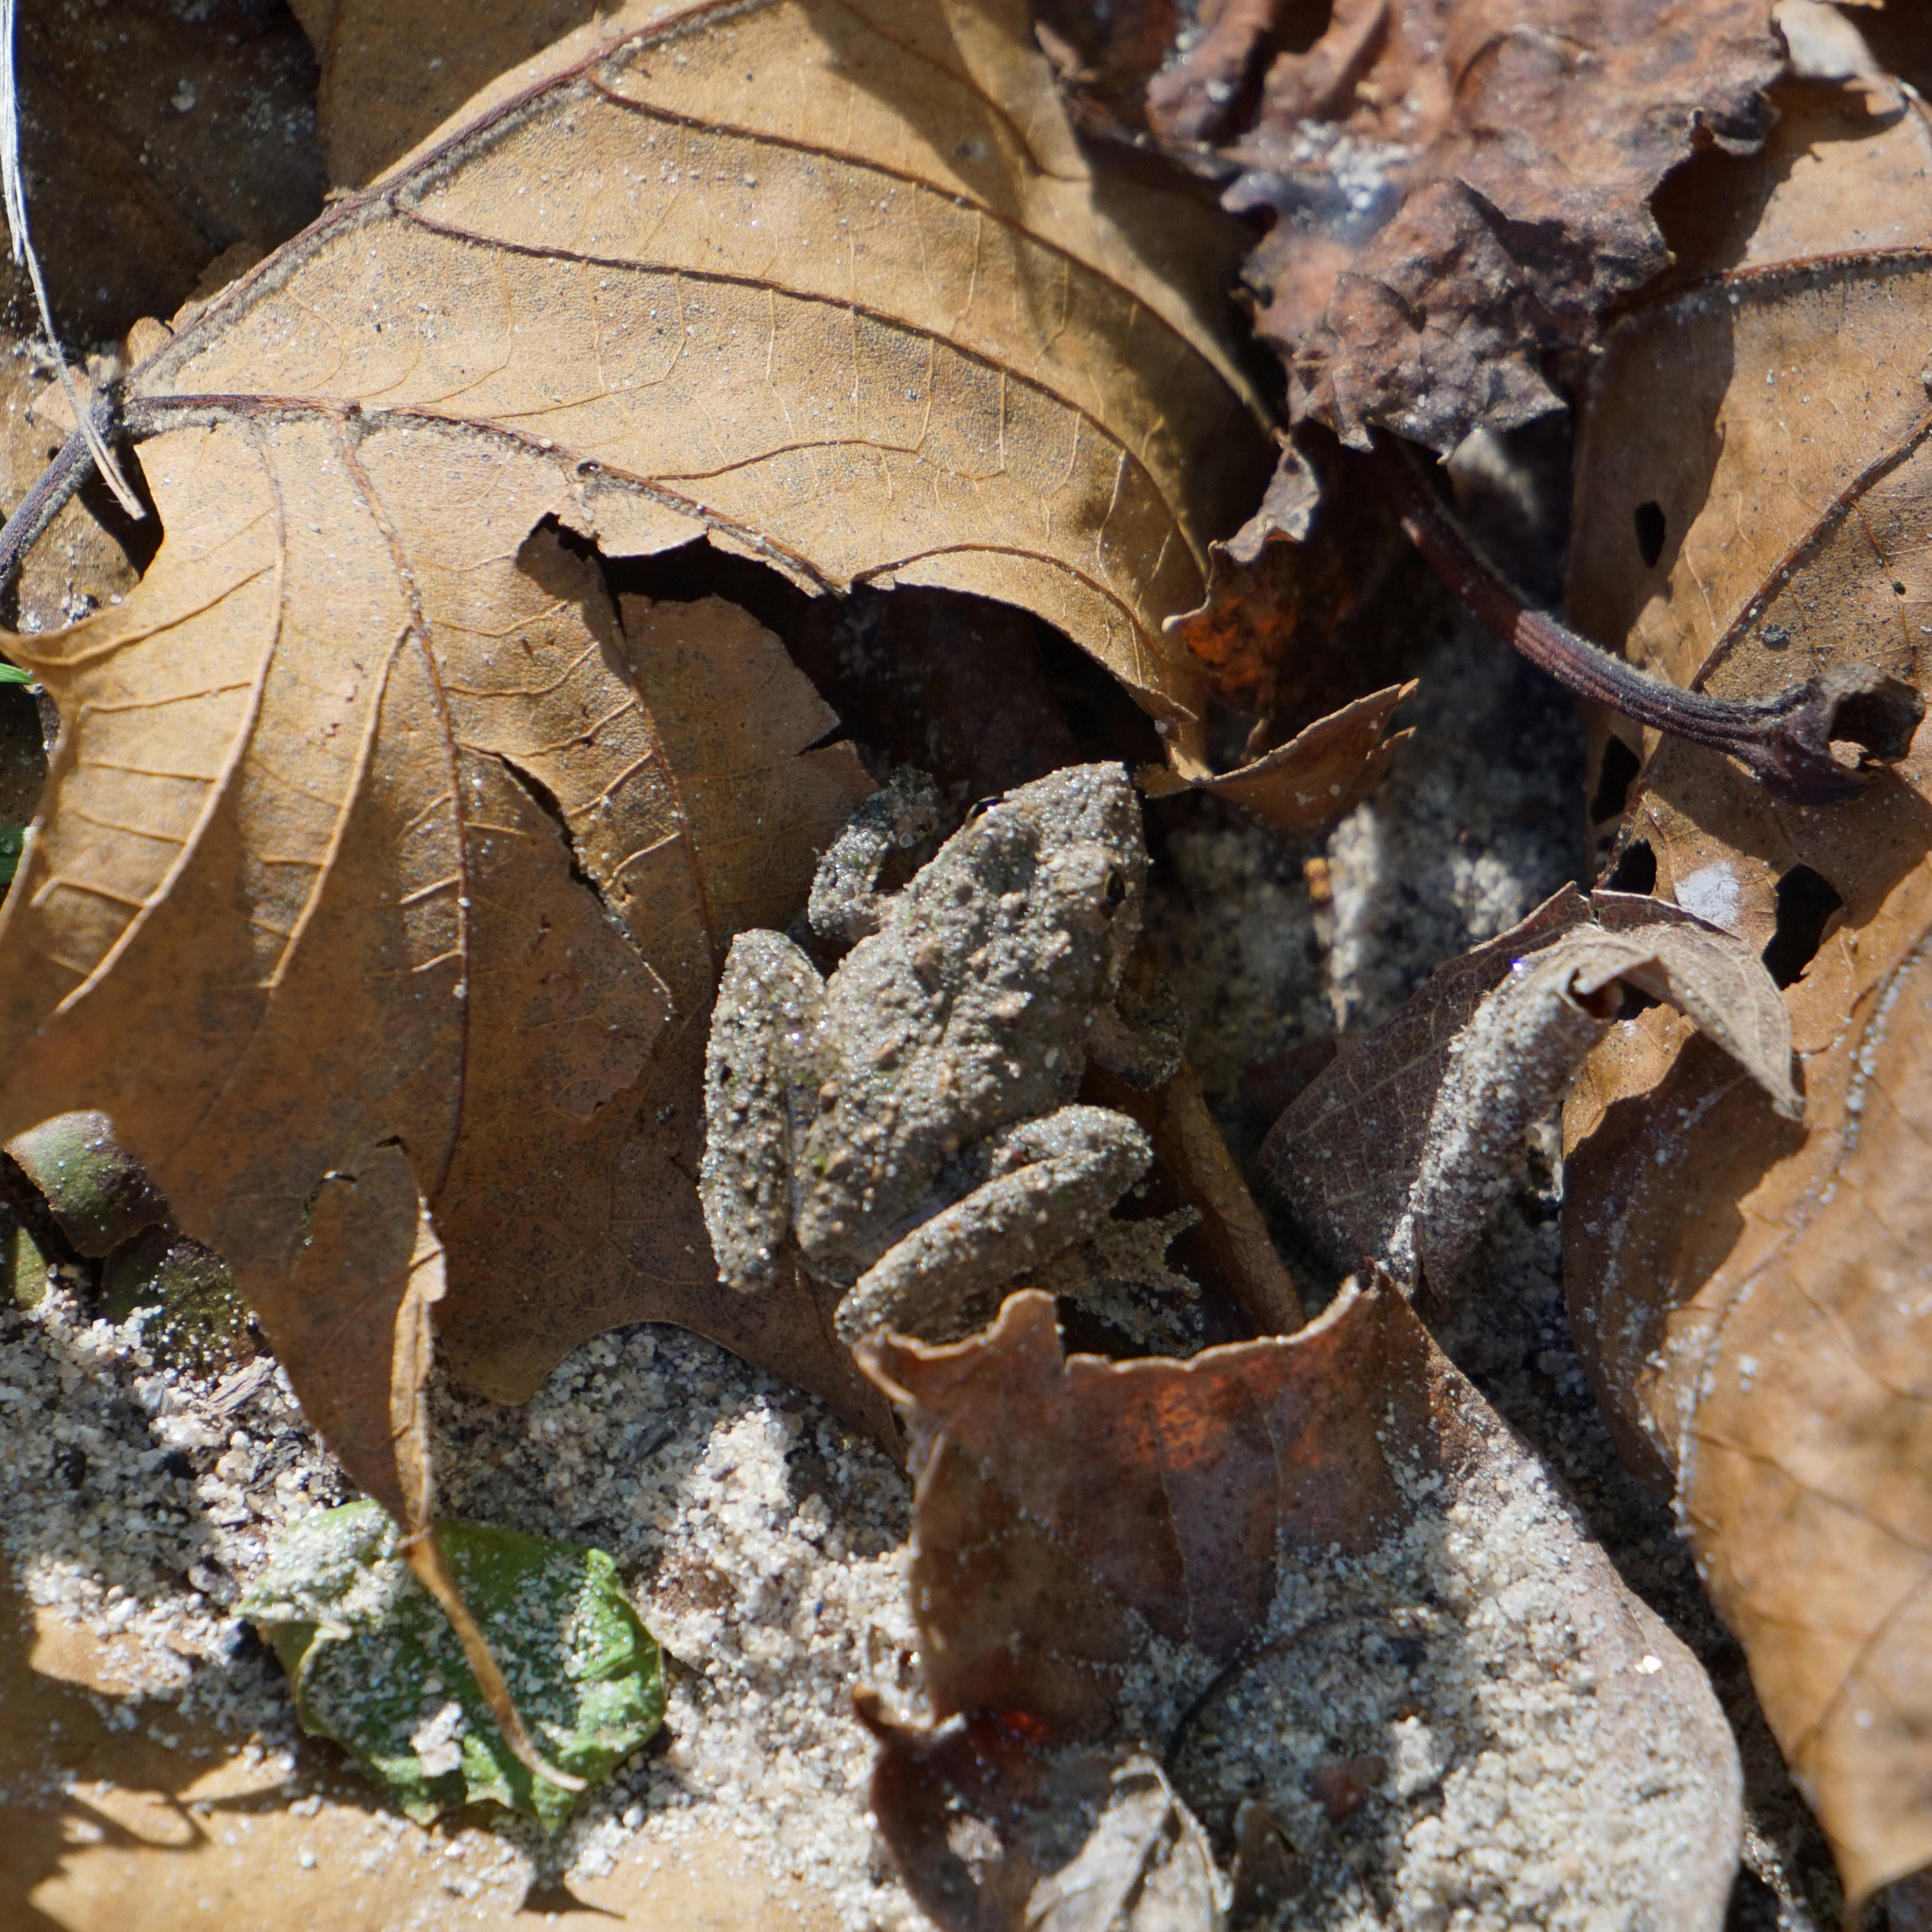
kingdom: Animalia
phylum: Chordata
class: Amphibia
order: Anura
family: Hylidae
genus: Acris
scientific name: Acris crepitans
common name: Northern cricket frog
